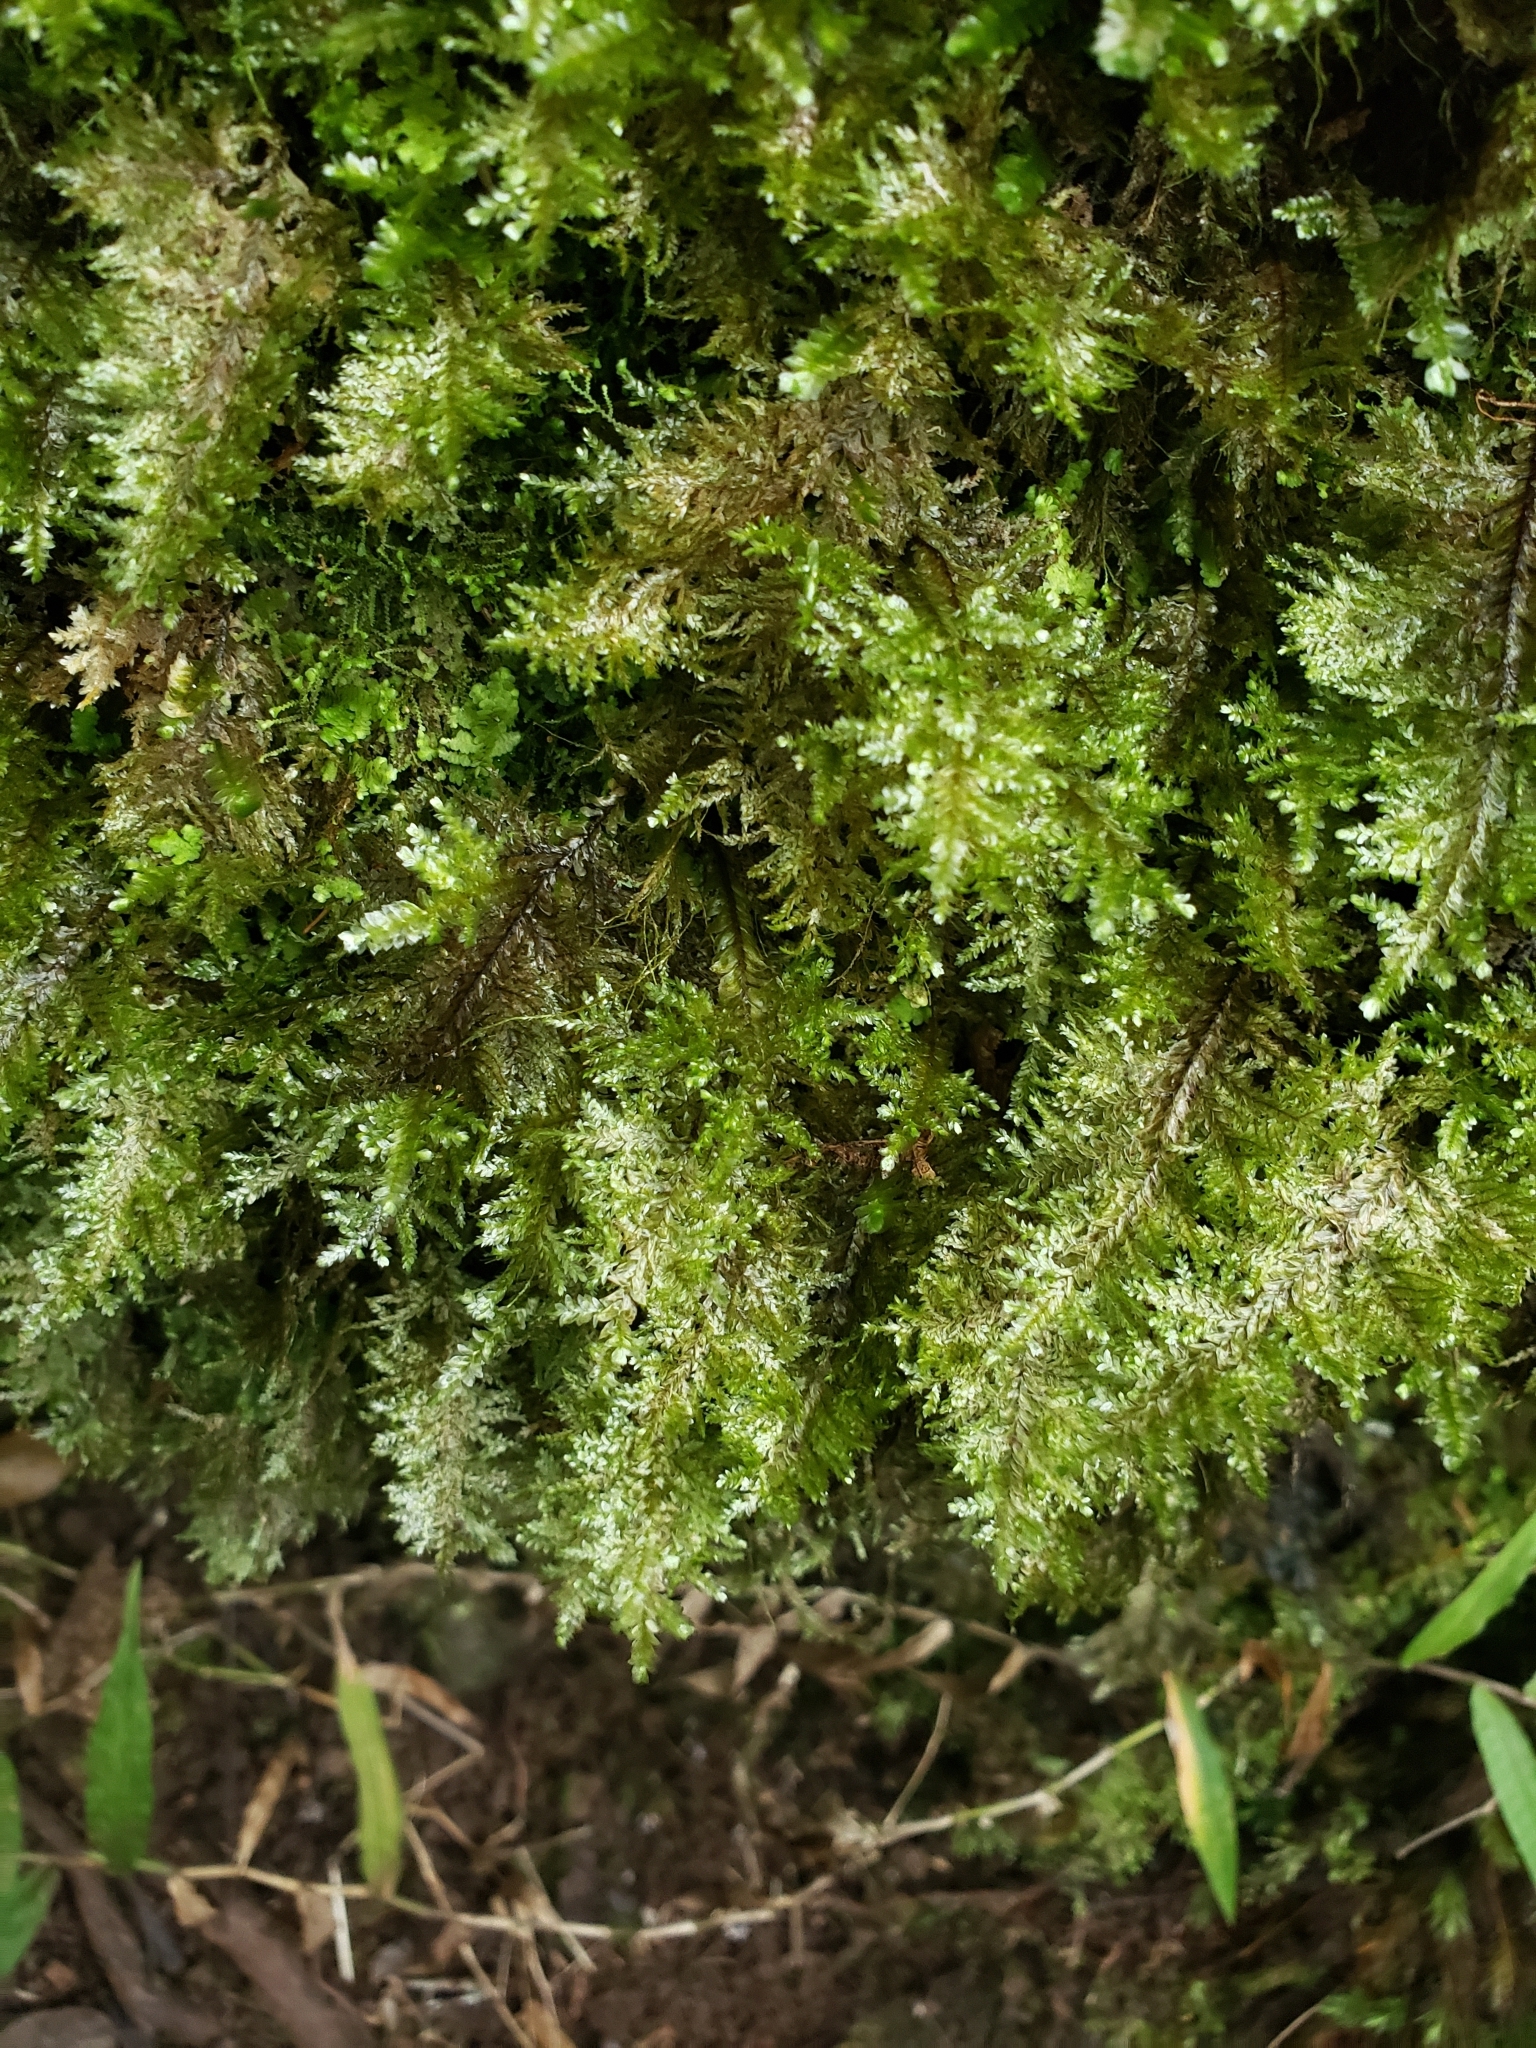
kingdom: Plantae
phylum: Bryophyta
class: Bryopsida
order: Hypnales
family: Neckeraceae
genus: Homaliodendron
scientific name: Homaliodendron flabellatum
